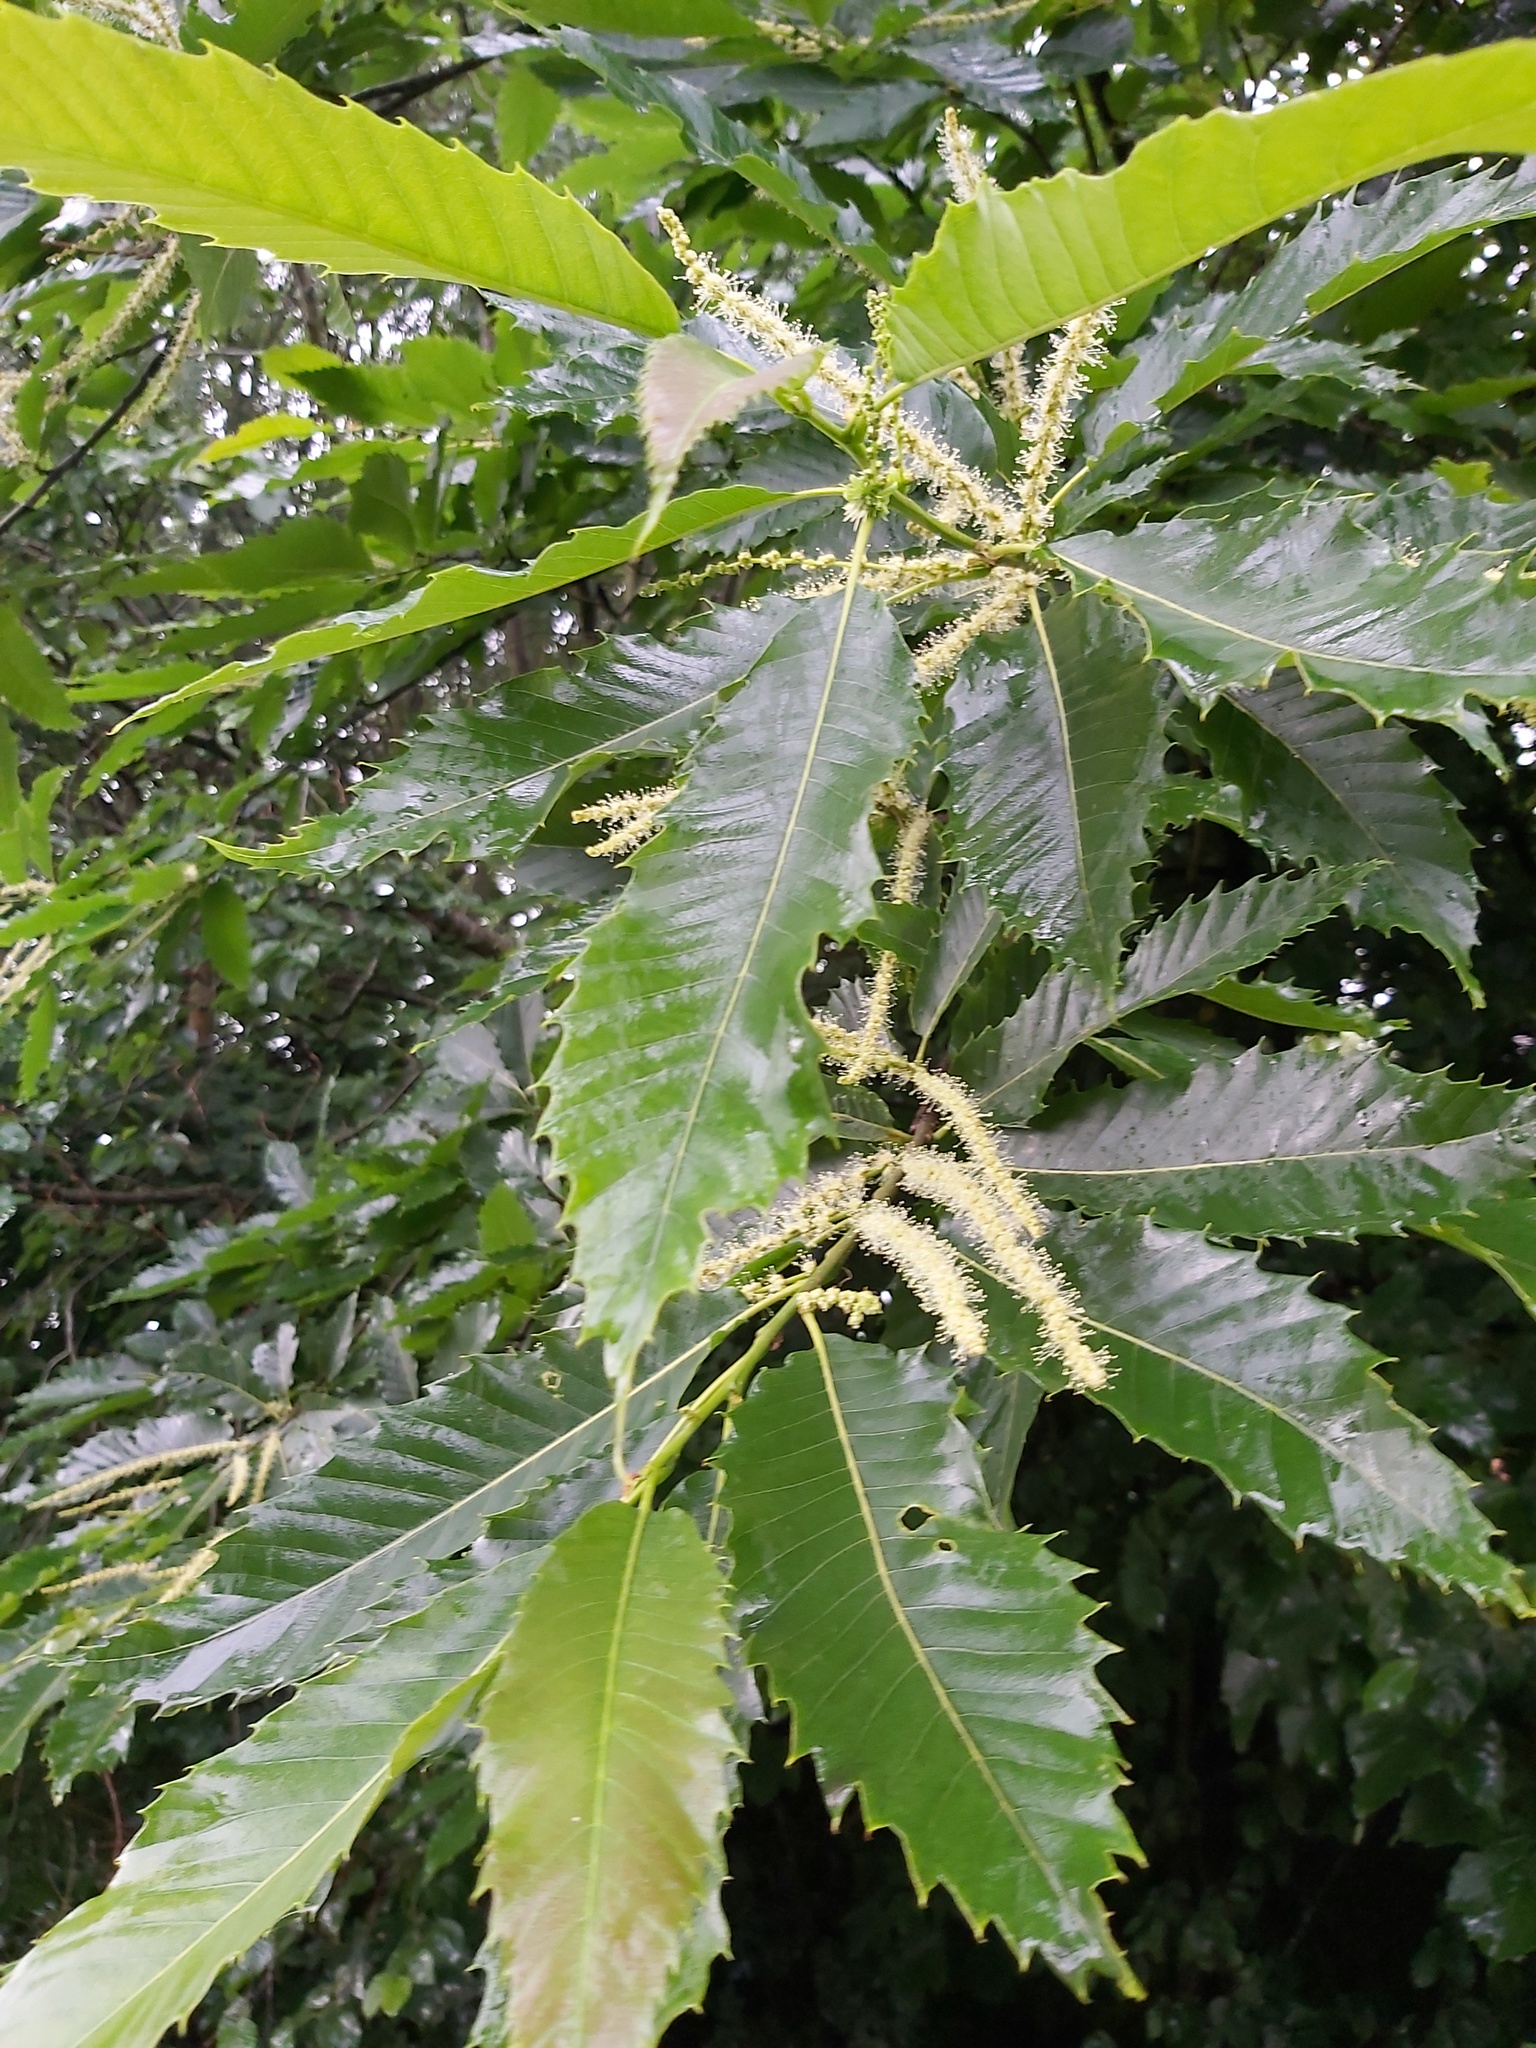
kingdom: Plantae
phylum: Tracheophyta
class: Magnoliopsida
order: Fagales
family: Fagaceae
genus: Castanea
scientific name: Castanea sativa
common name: Sweet chestnut
